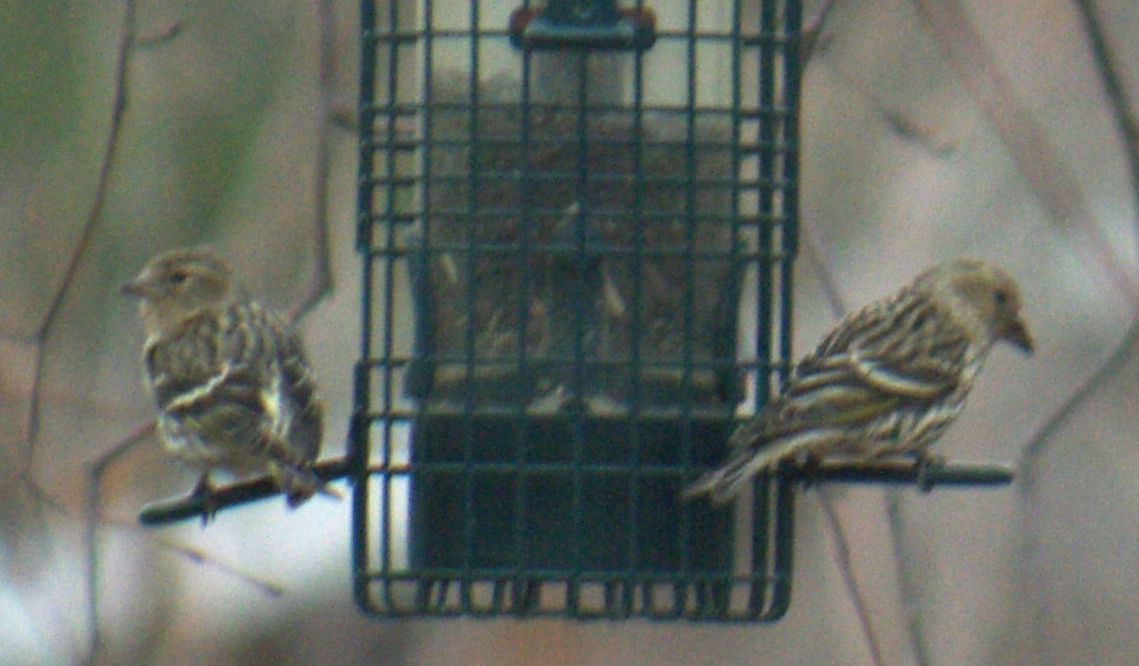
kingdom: Animalia
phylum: Chordata
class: Aves
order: Passeriformes
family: Fringillidae
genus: Spinus
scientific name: Spinus pinus
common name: Pine siskin
